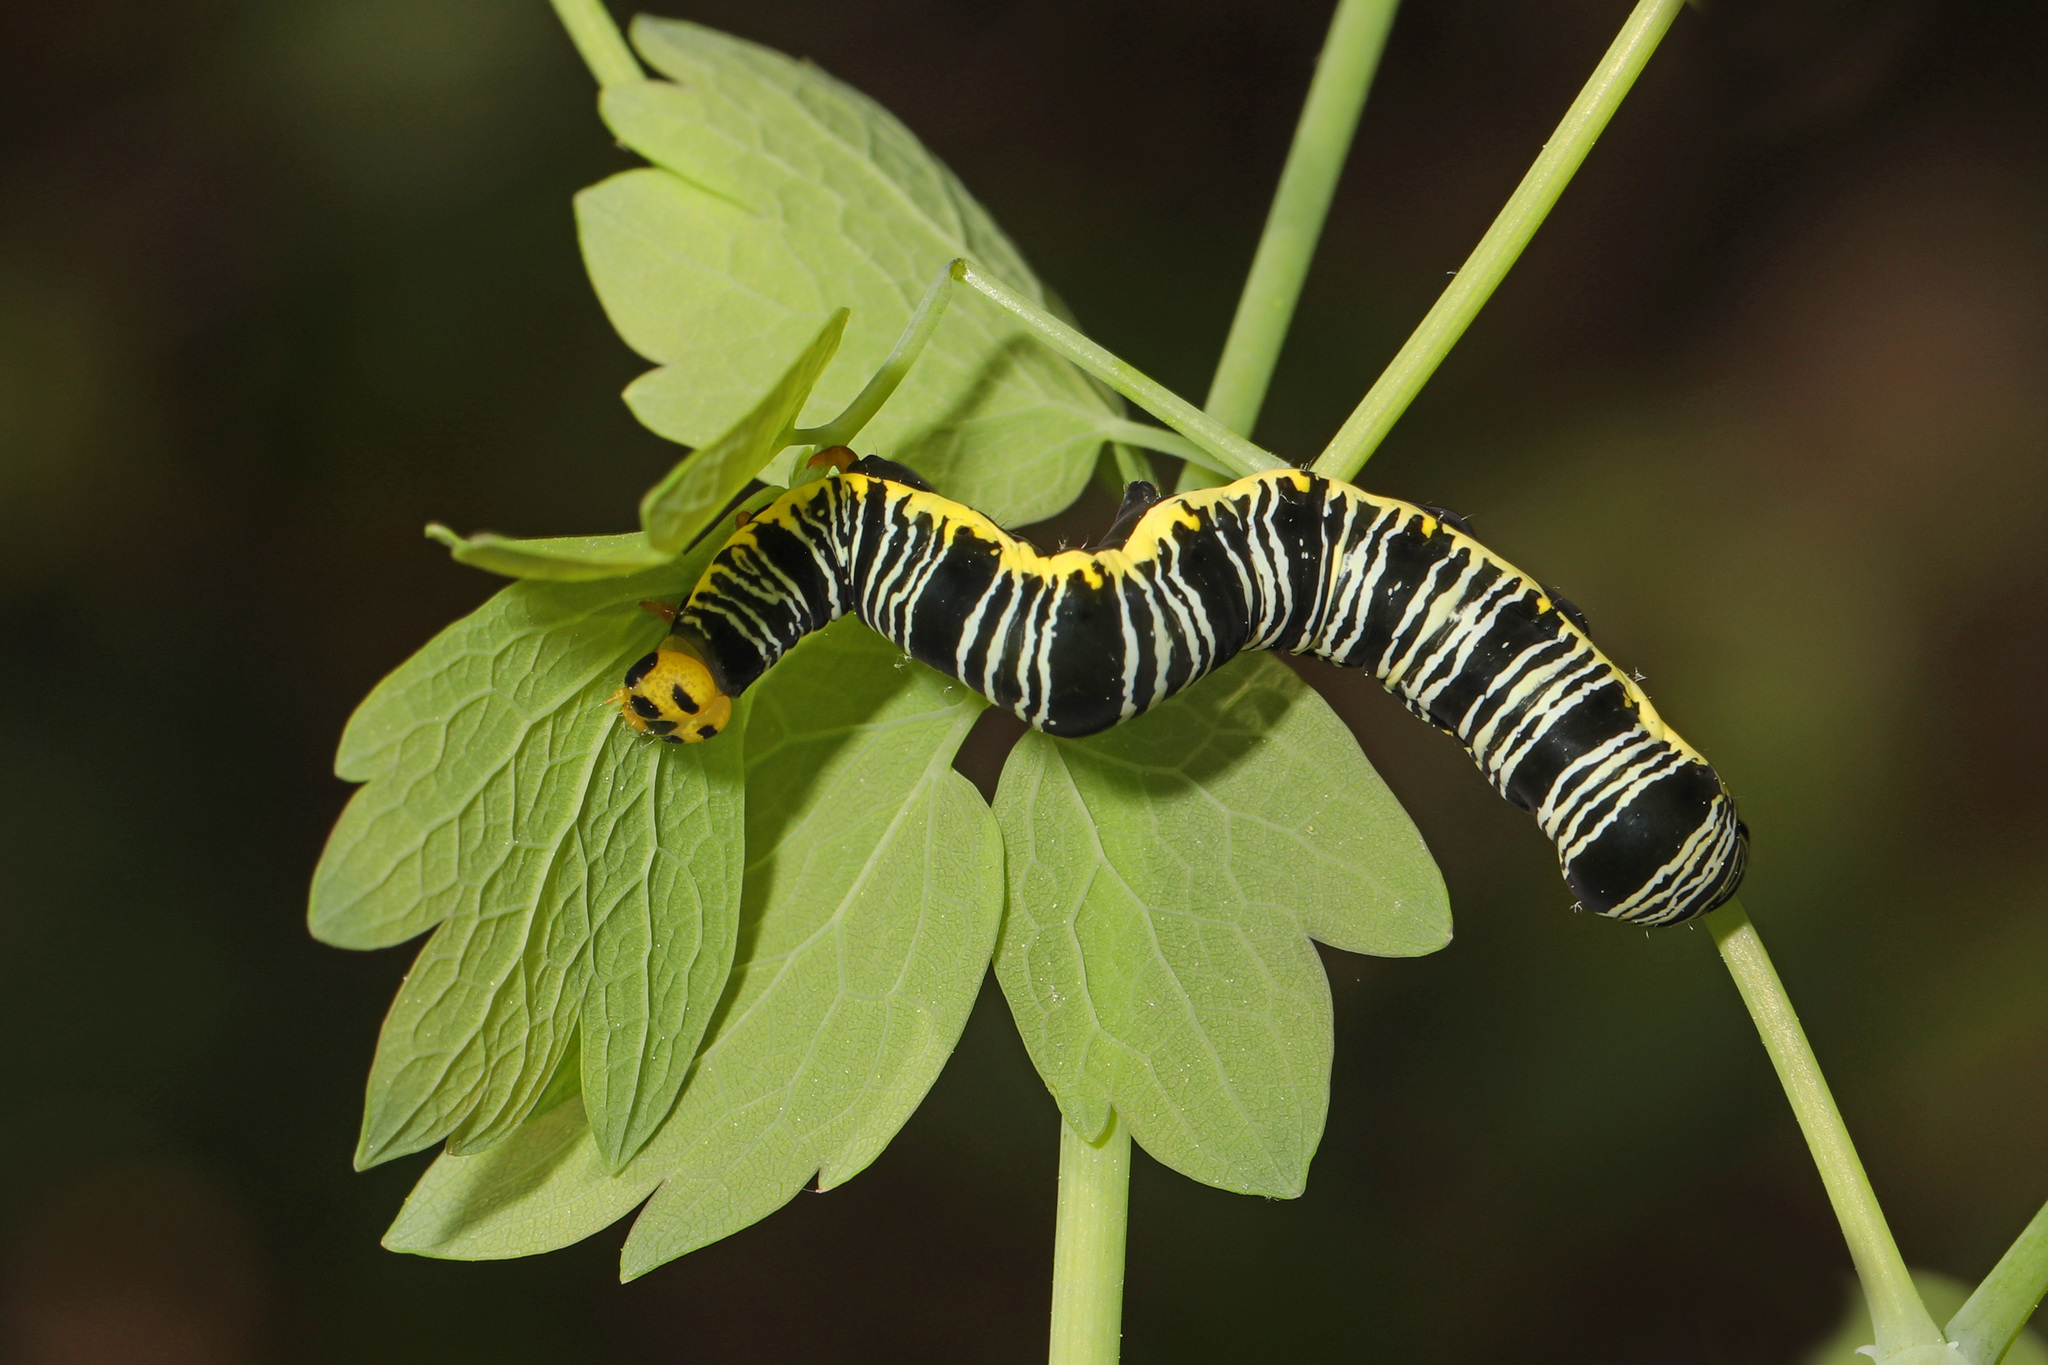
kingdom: Animalia
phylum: Arthropoda
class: Insecta
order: Lepidoptera
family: Erebidae
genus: Calyptra
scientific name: Calyptra canadensis
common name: Canadian owlet
